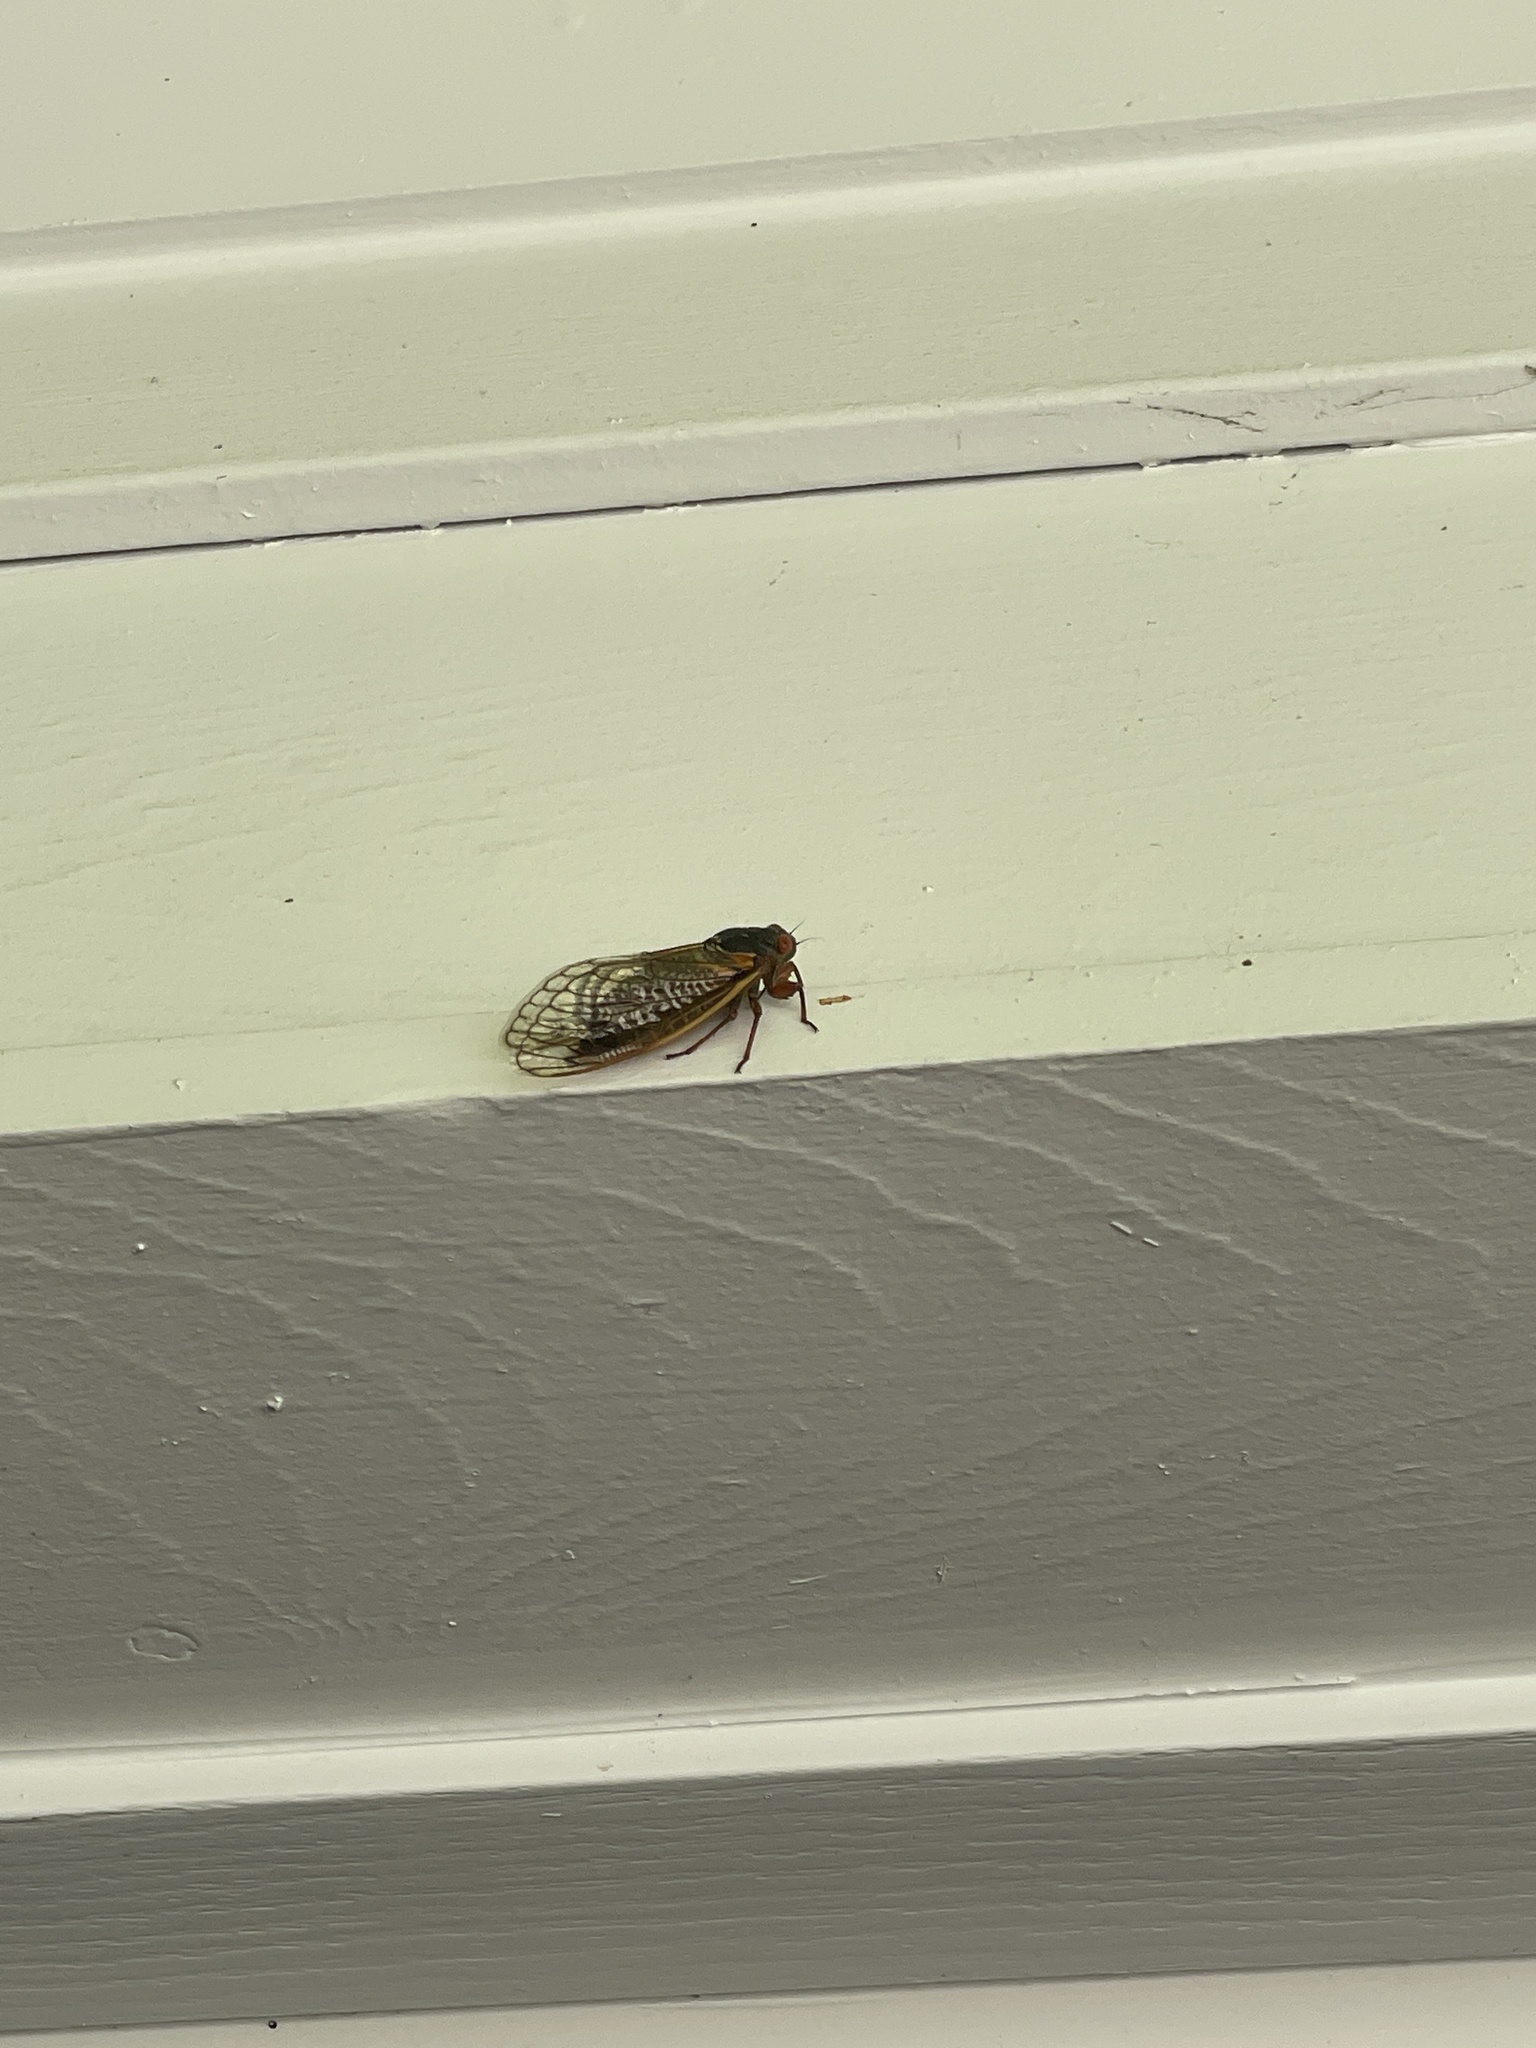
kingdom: Animalia
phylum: Arthropoda
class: Insecta
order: Hemiptera
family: Cicadidae
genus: Magicicada
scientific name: Magicicada septendecim
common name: Periodical cicada
